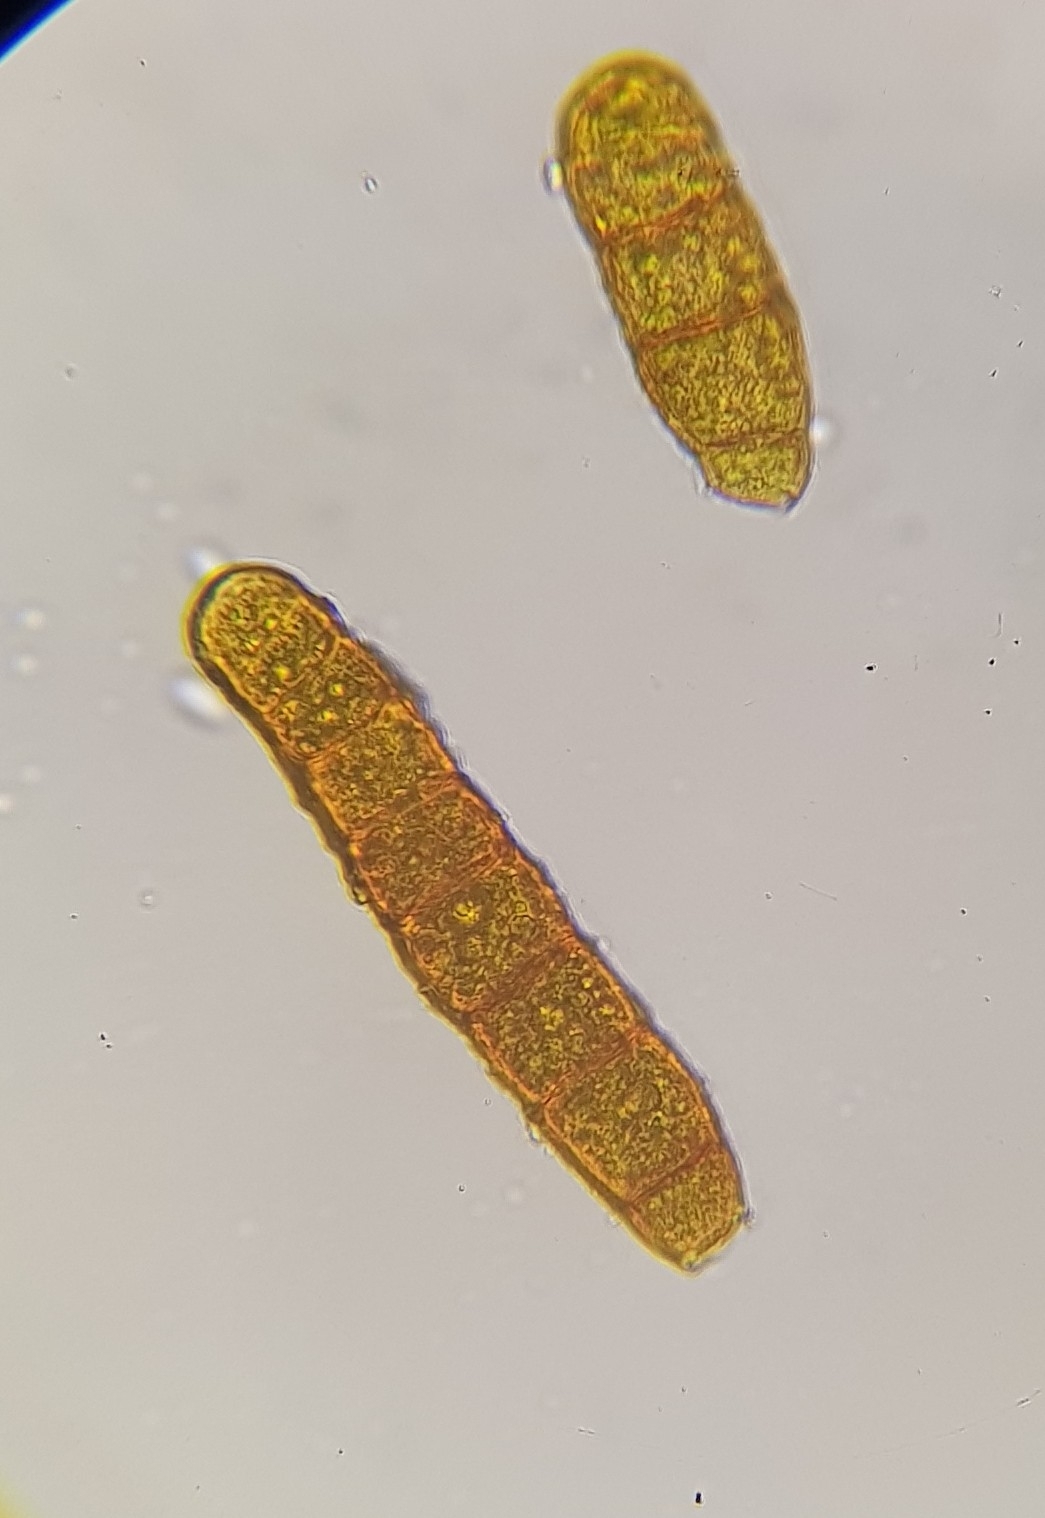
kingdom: Plantae
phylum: Bryophyta
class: Bryopsida
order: Orthotrichales
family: Orthotrichaceae
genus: Plenogemma
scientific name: Plenogemma phyllantha
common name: Frizzled pincushion
